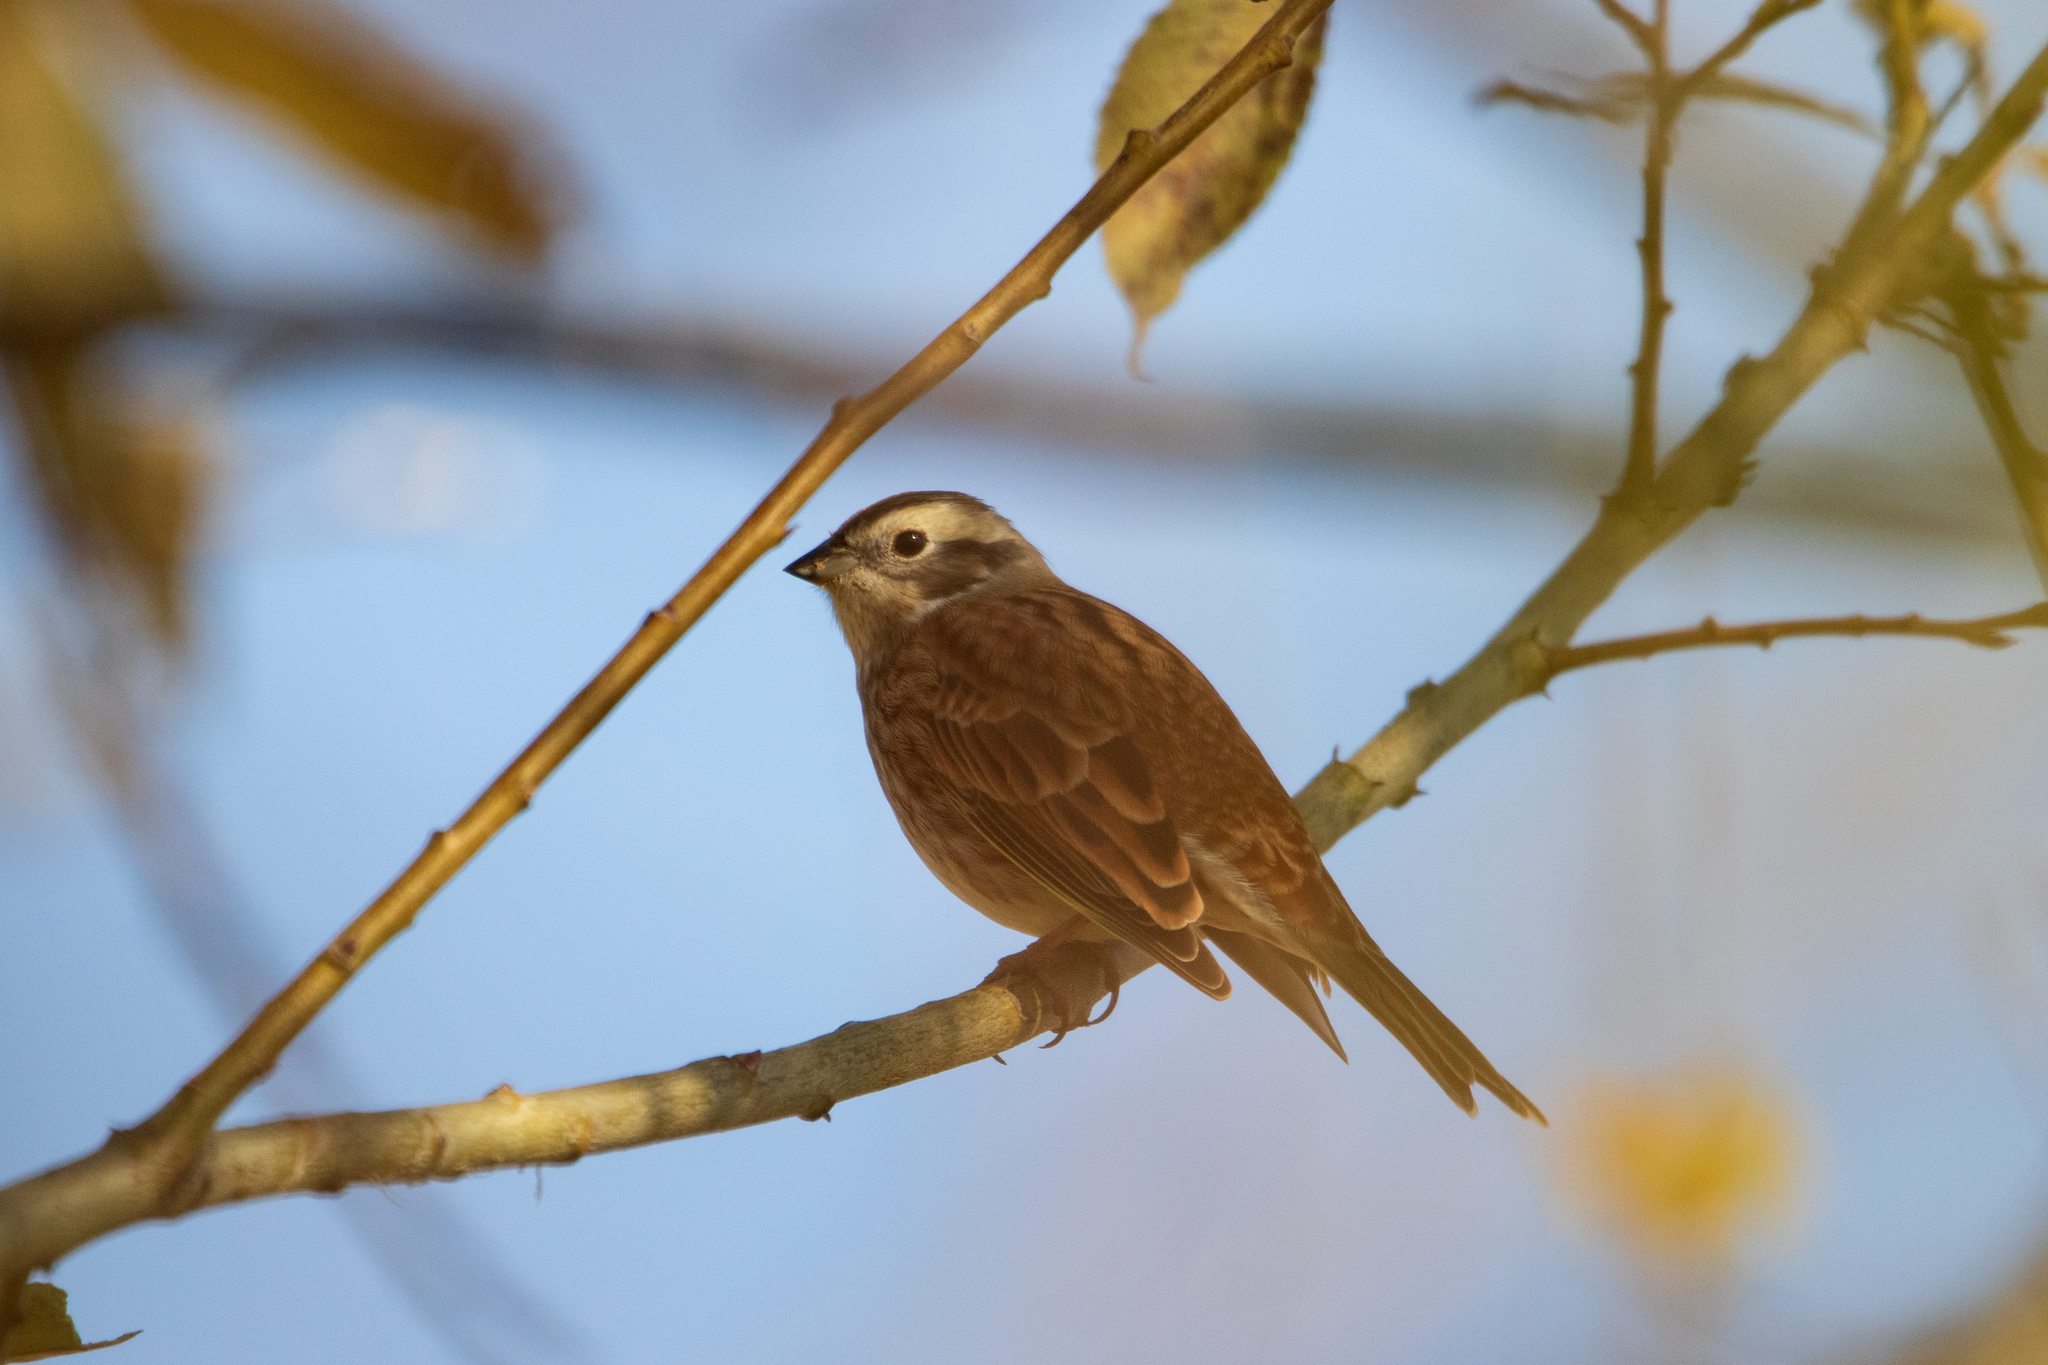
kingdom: Animalia
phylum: Chordata
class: Aves
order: Passeriformes
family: Emberizidae
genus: Emberiza
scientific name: Emberiza
